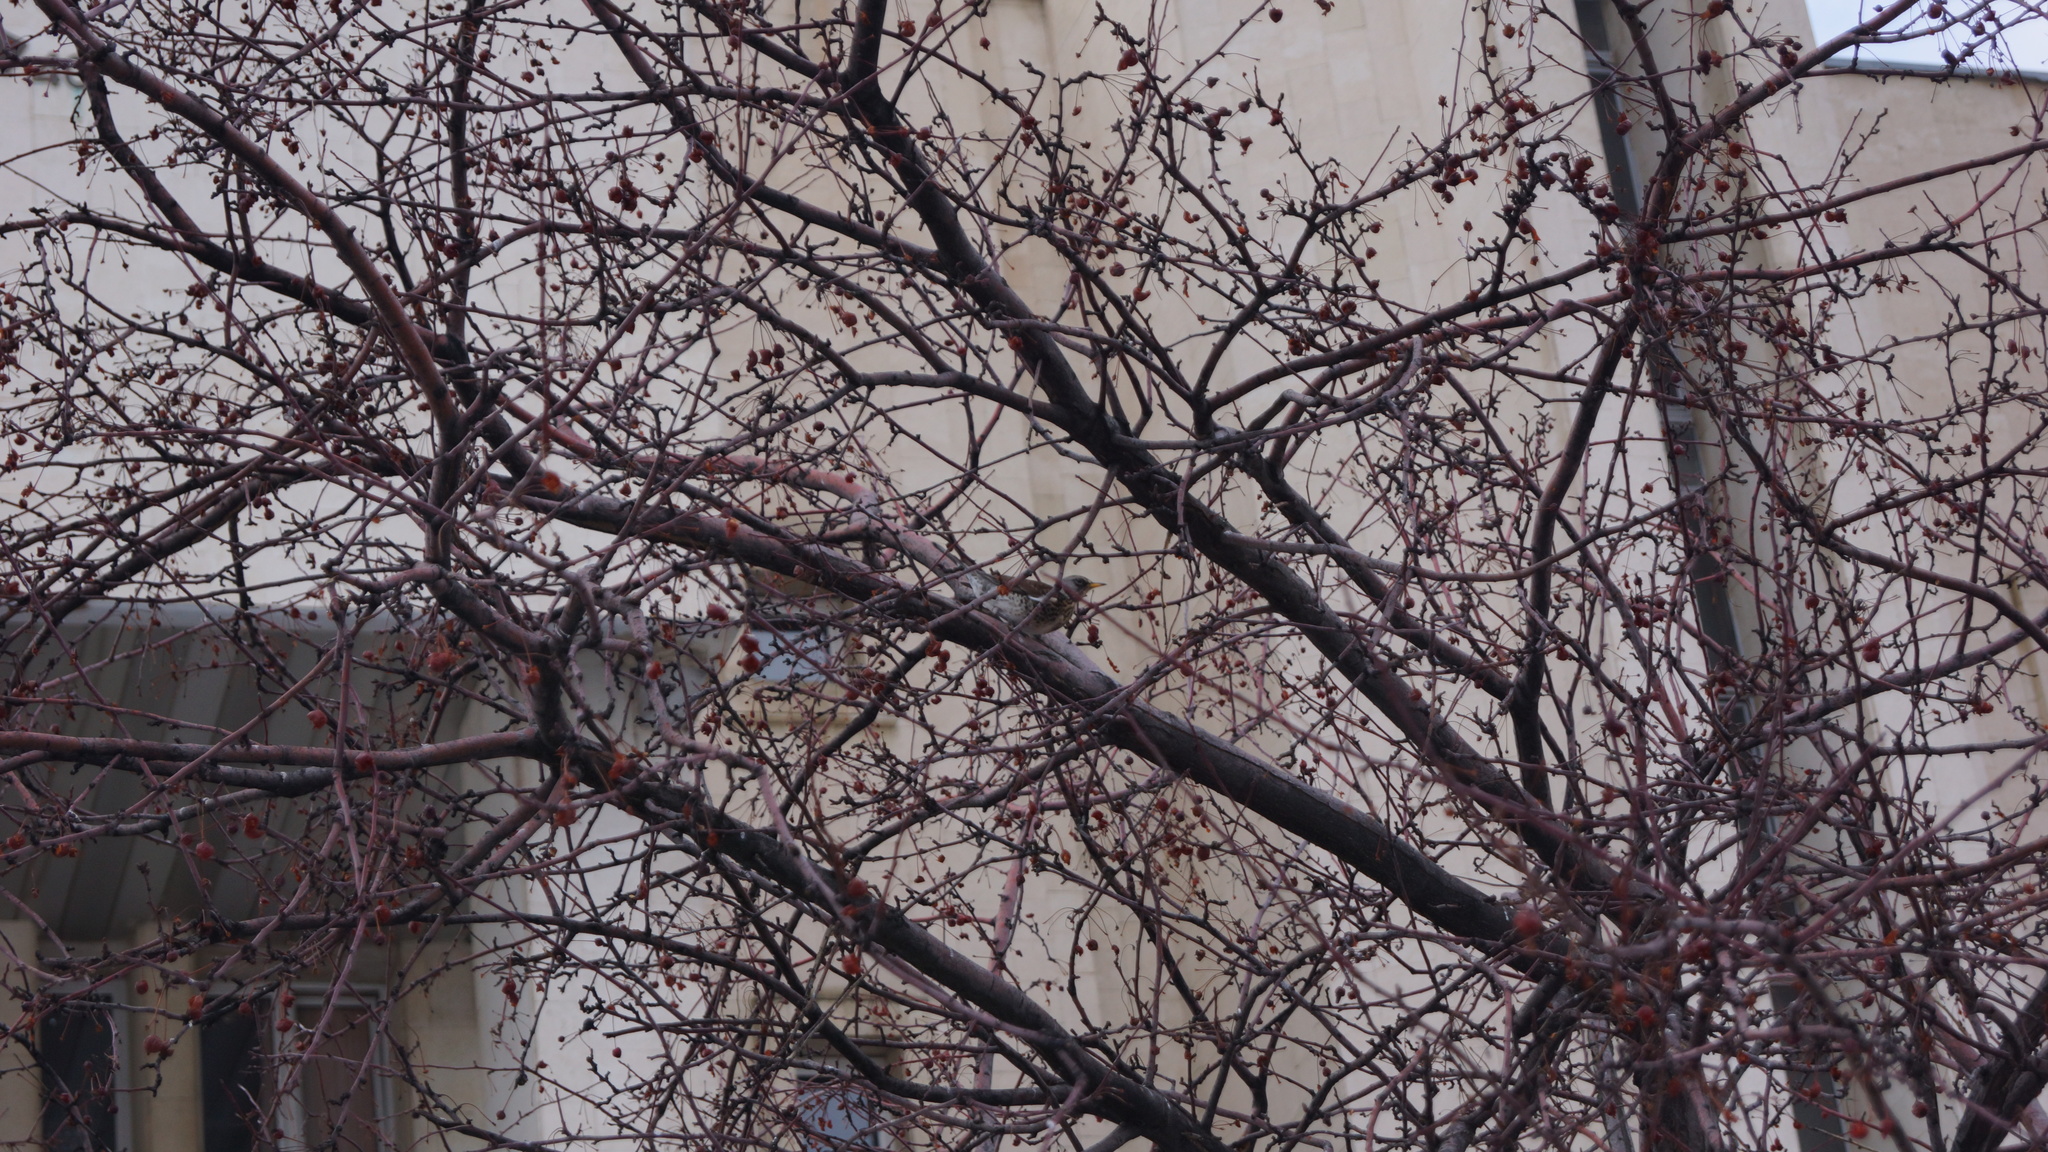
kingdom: Animalia
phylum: Chordata
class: Aves
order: Passeriformes
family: Turdidae
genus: Turdus
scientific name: Turdus pilaris
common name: Fieldfare
